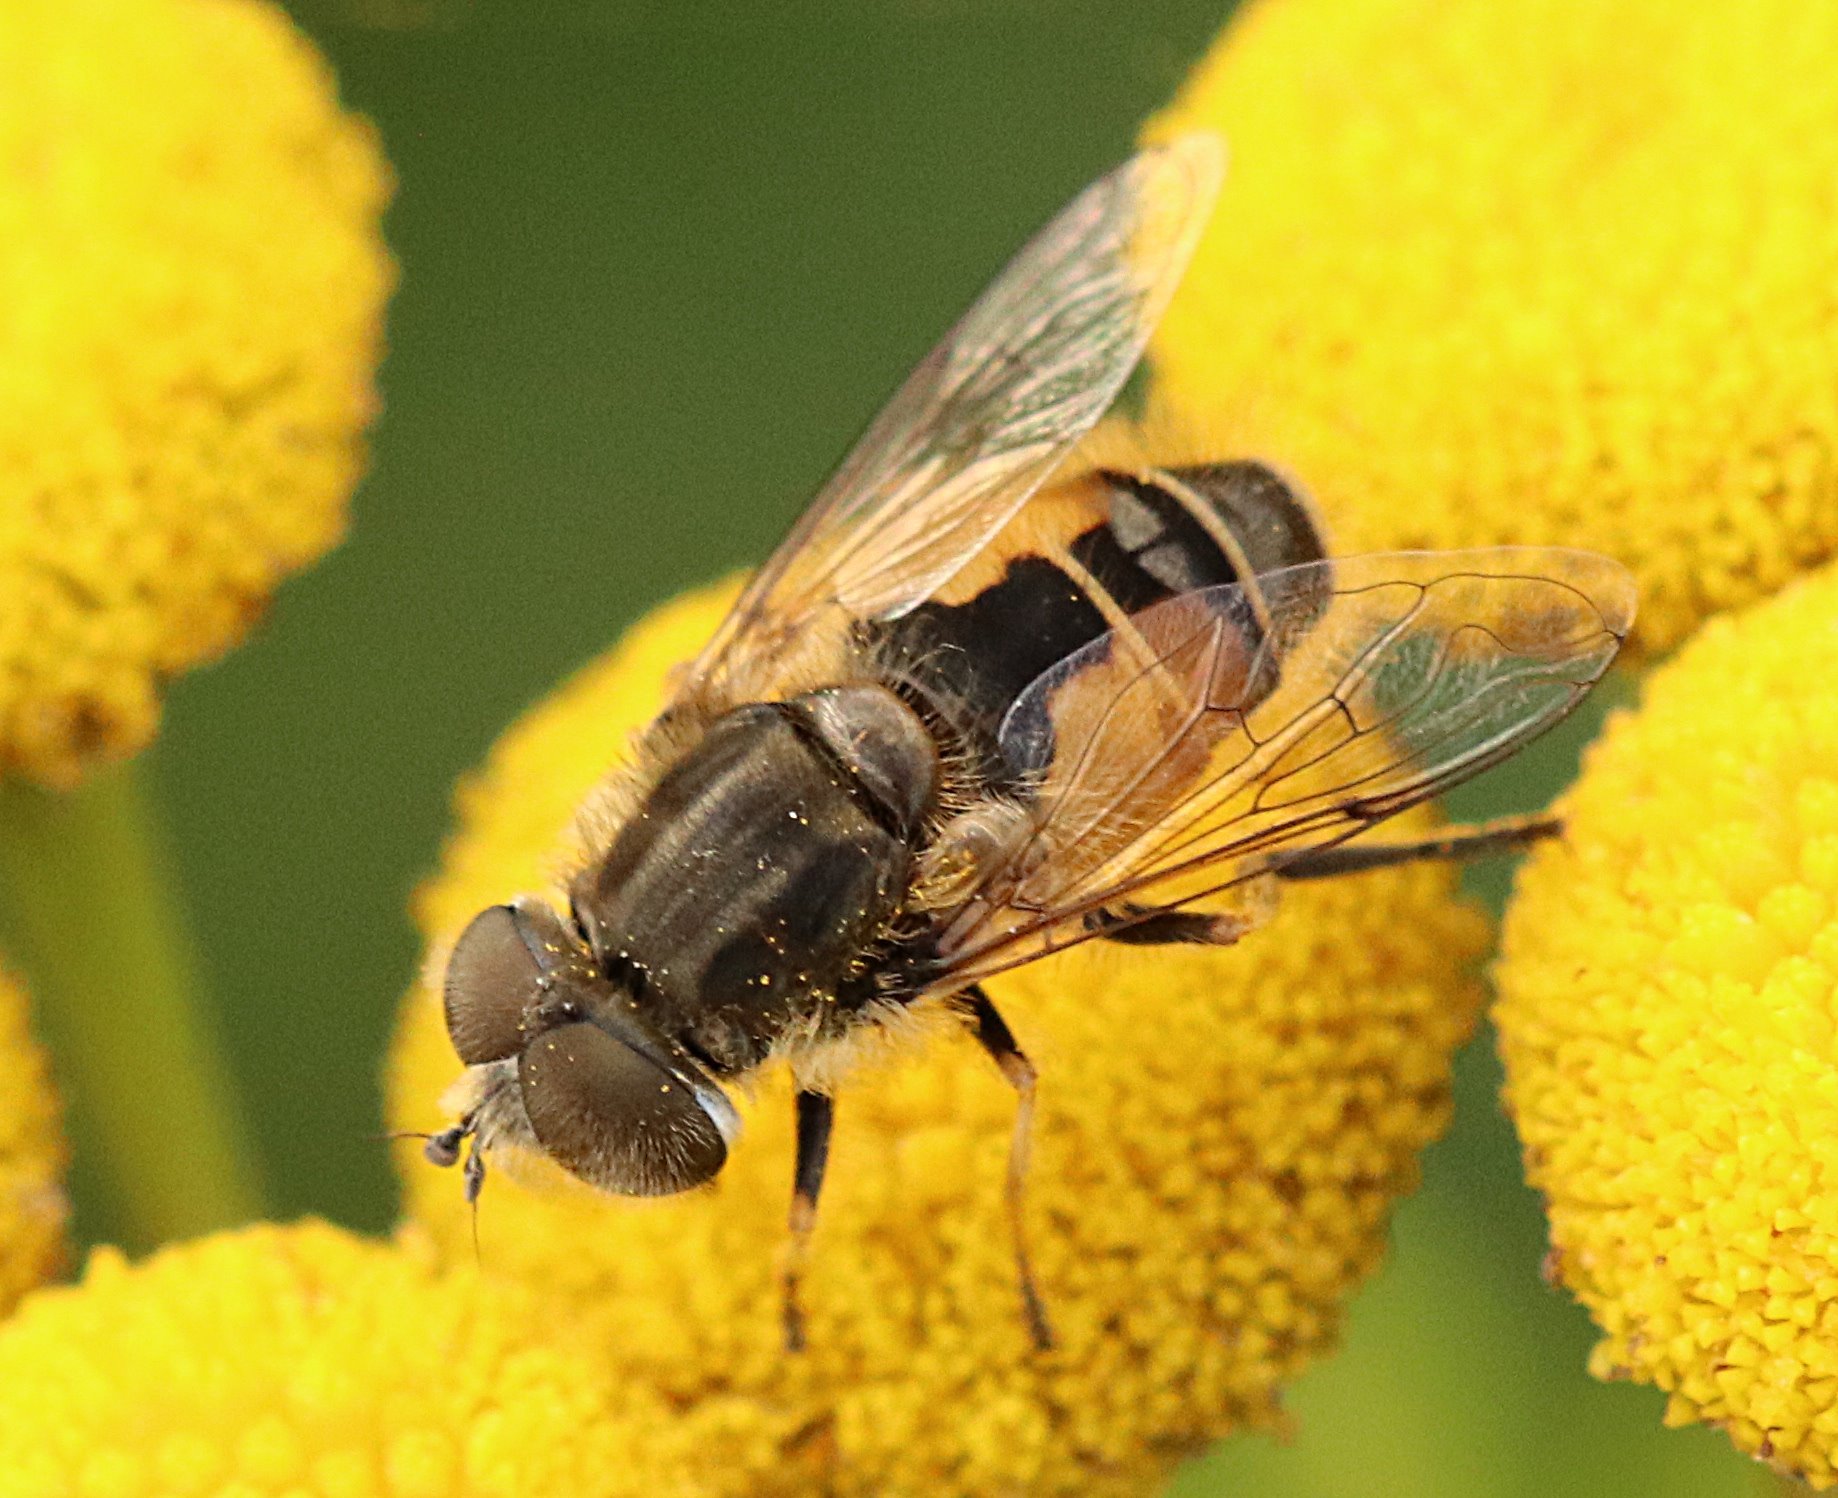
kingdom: Animalia
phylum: Arthropoda
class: Insecta
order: Diptera
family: Syrphidae
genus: Eristalis
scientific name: Eristalis abusivus
